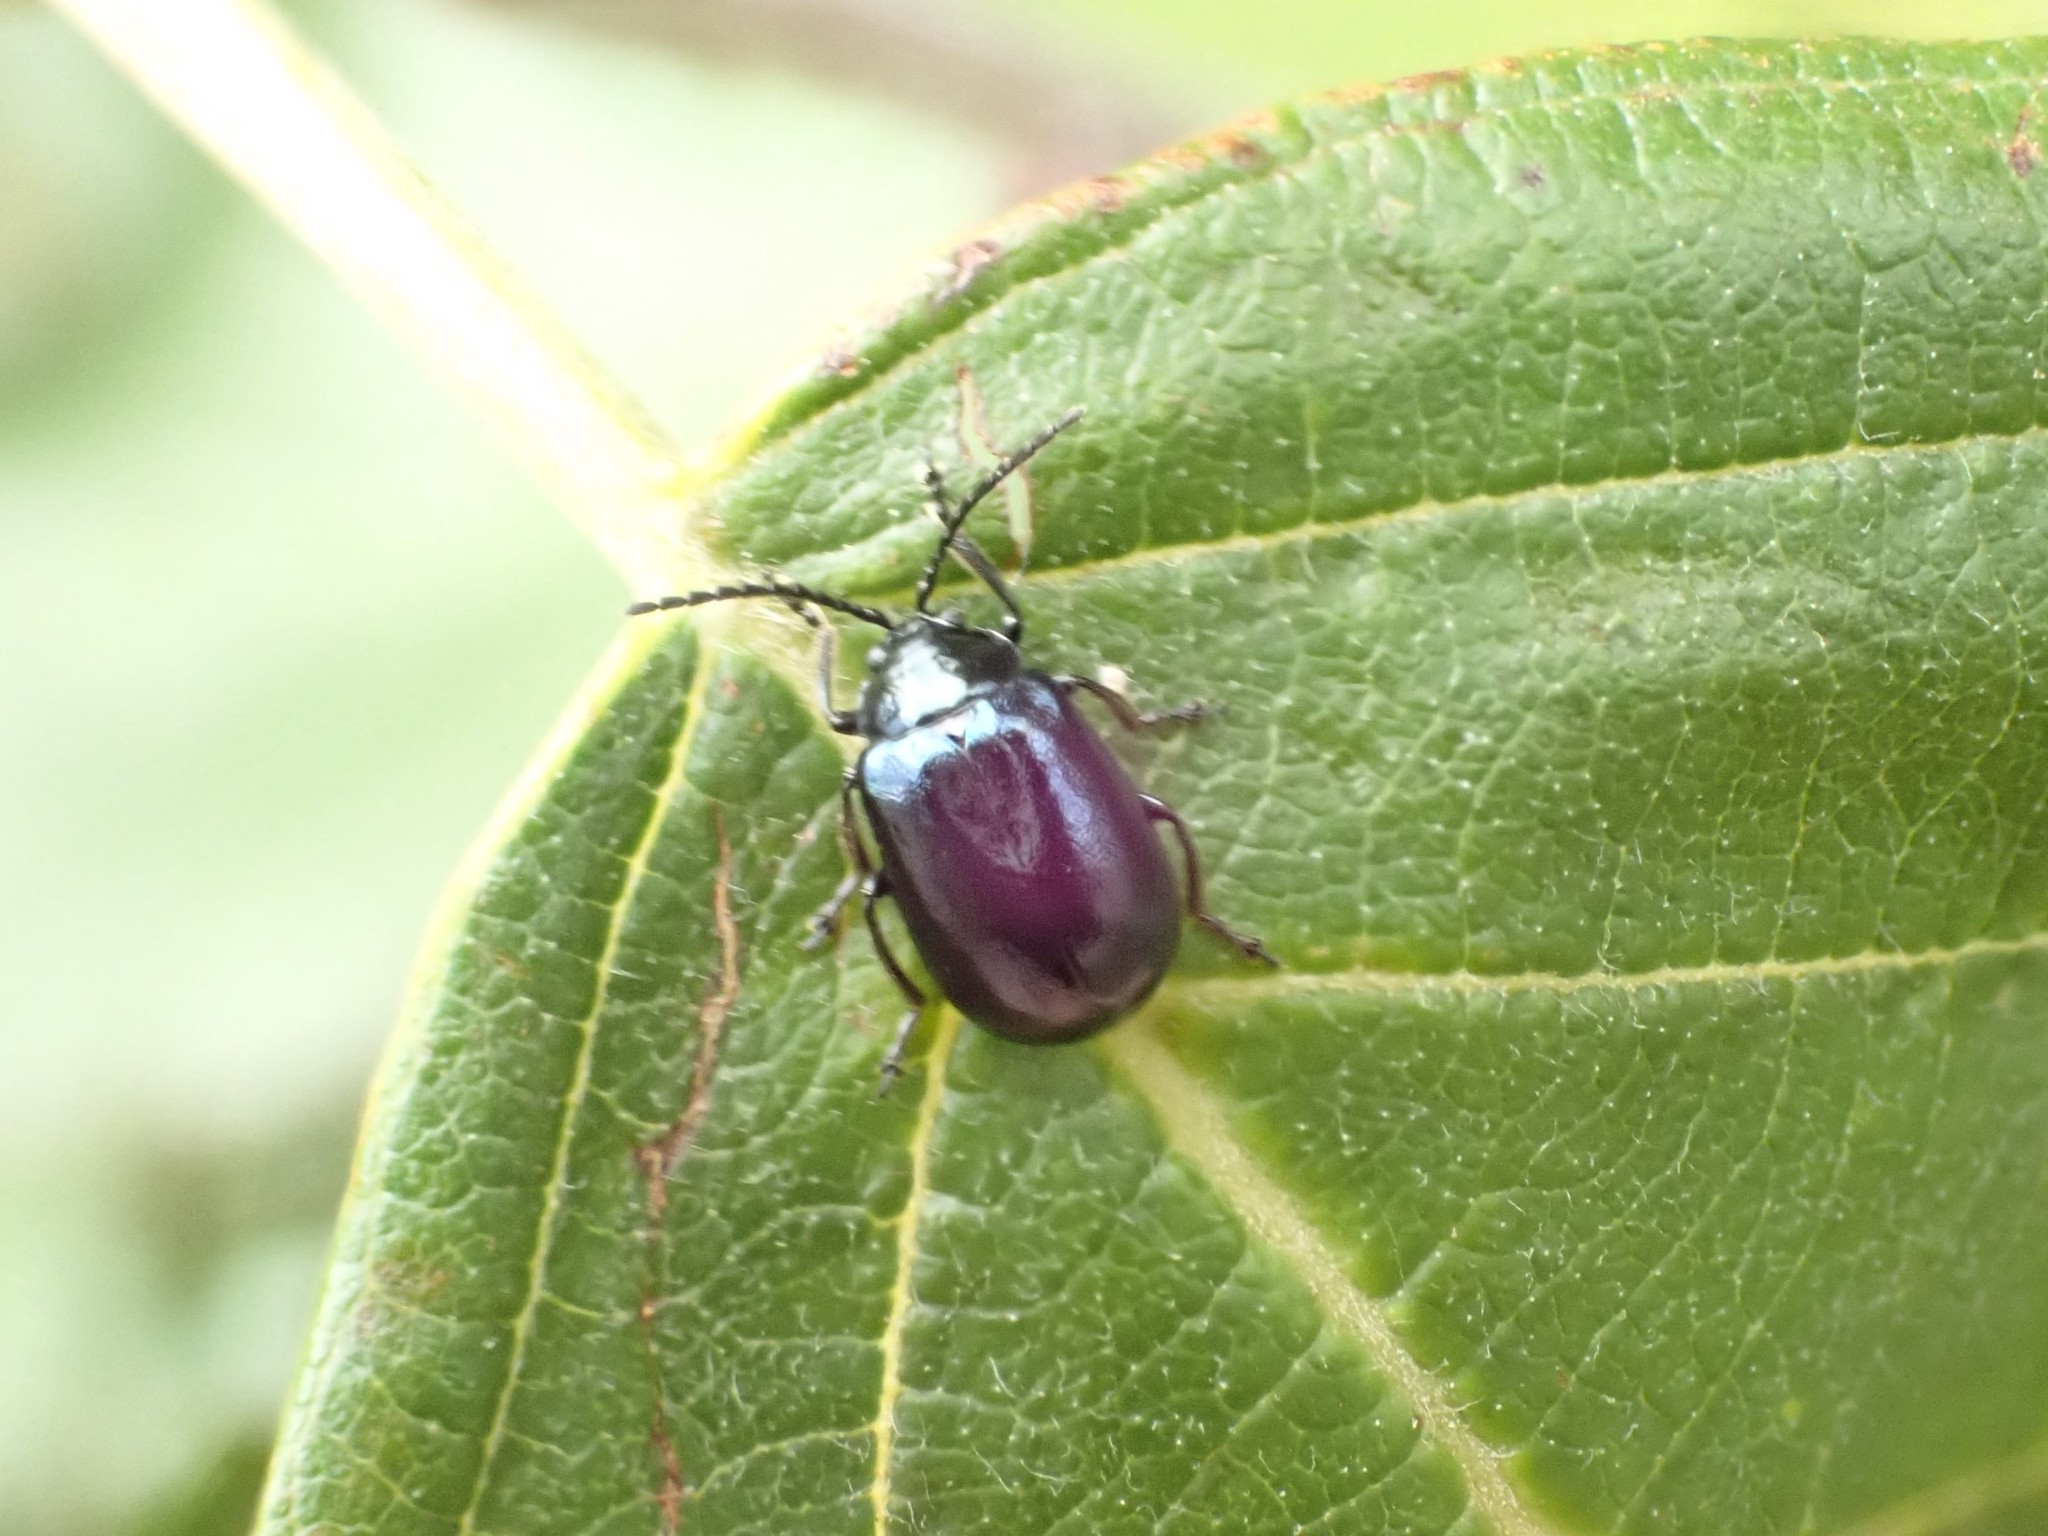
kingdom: Animalia
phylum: Arthropoda
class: Insecta
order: Coleoptera
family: Chrysomelidae
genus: Agelastica
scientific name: Agelastica alni
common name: Alder leaf beetle
